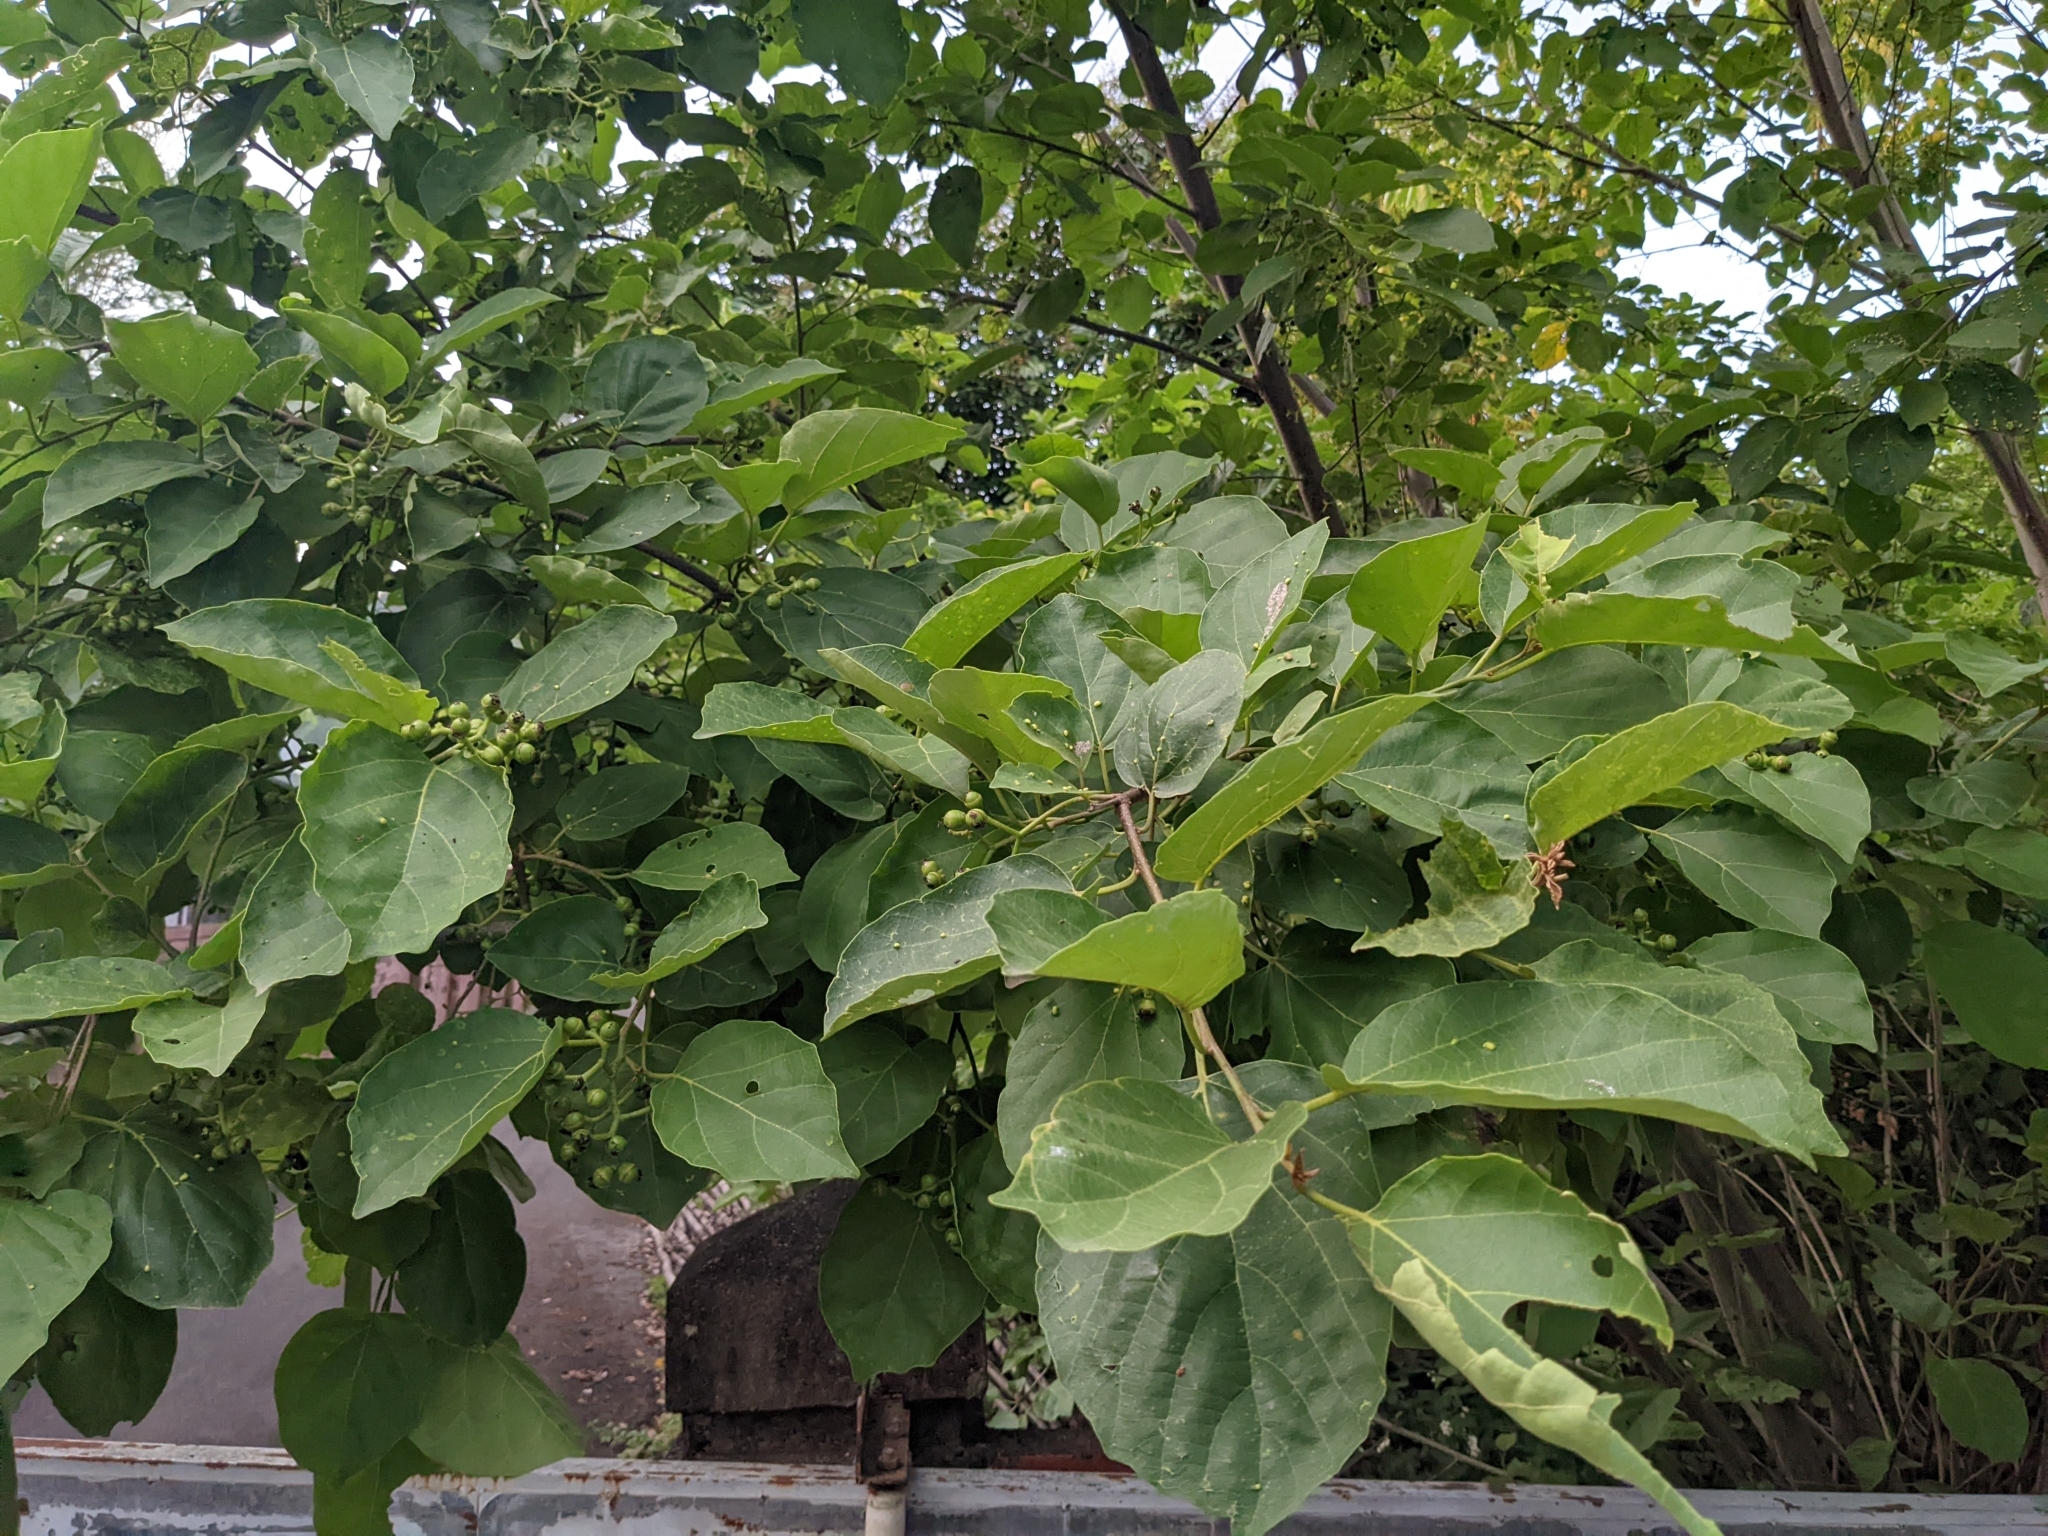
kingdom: Plantae
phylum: Tracheophyta
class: Magnoliopsida
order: Boraginales
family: Cordiaceae
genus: Cordia
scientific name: Cordia dichotoma
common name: Fragrant manjack
